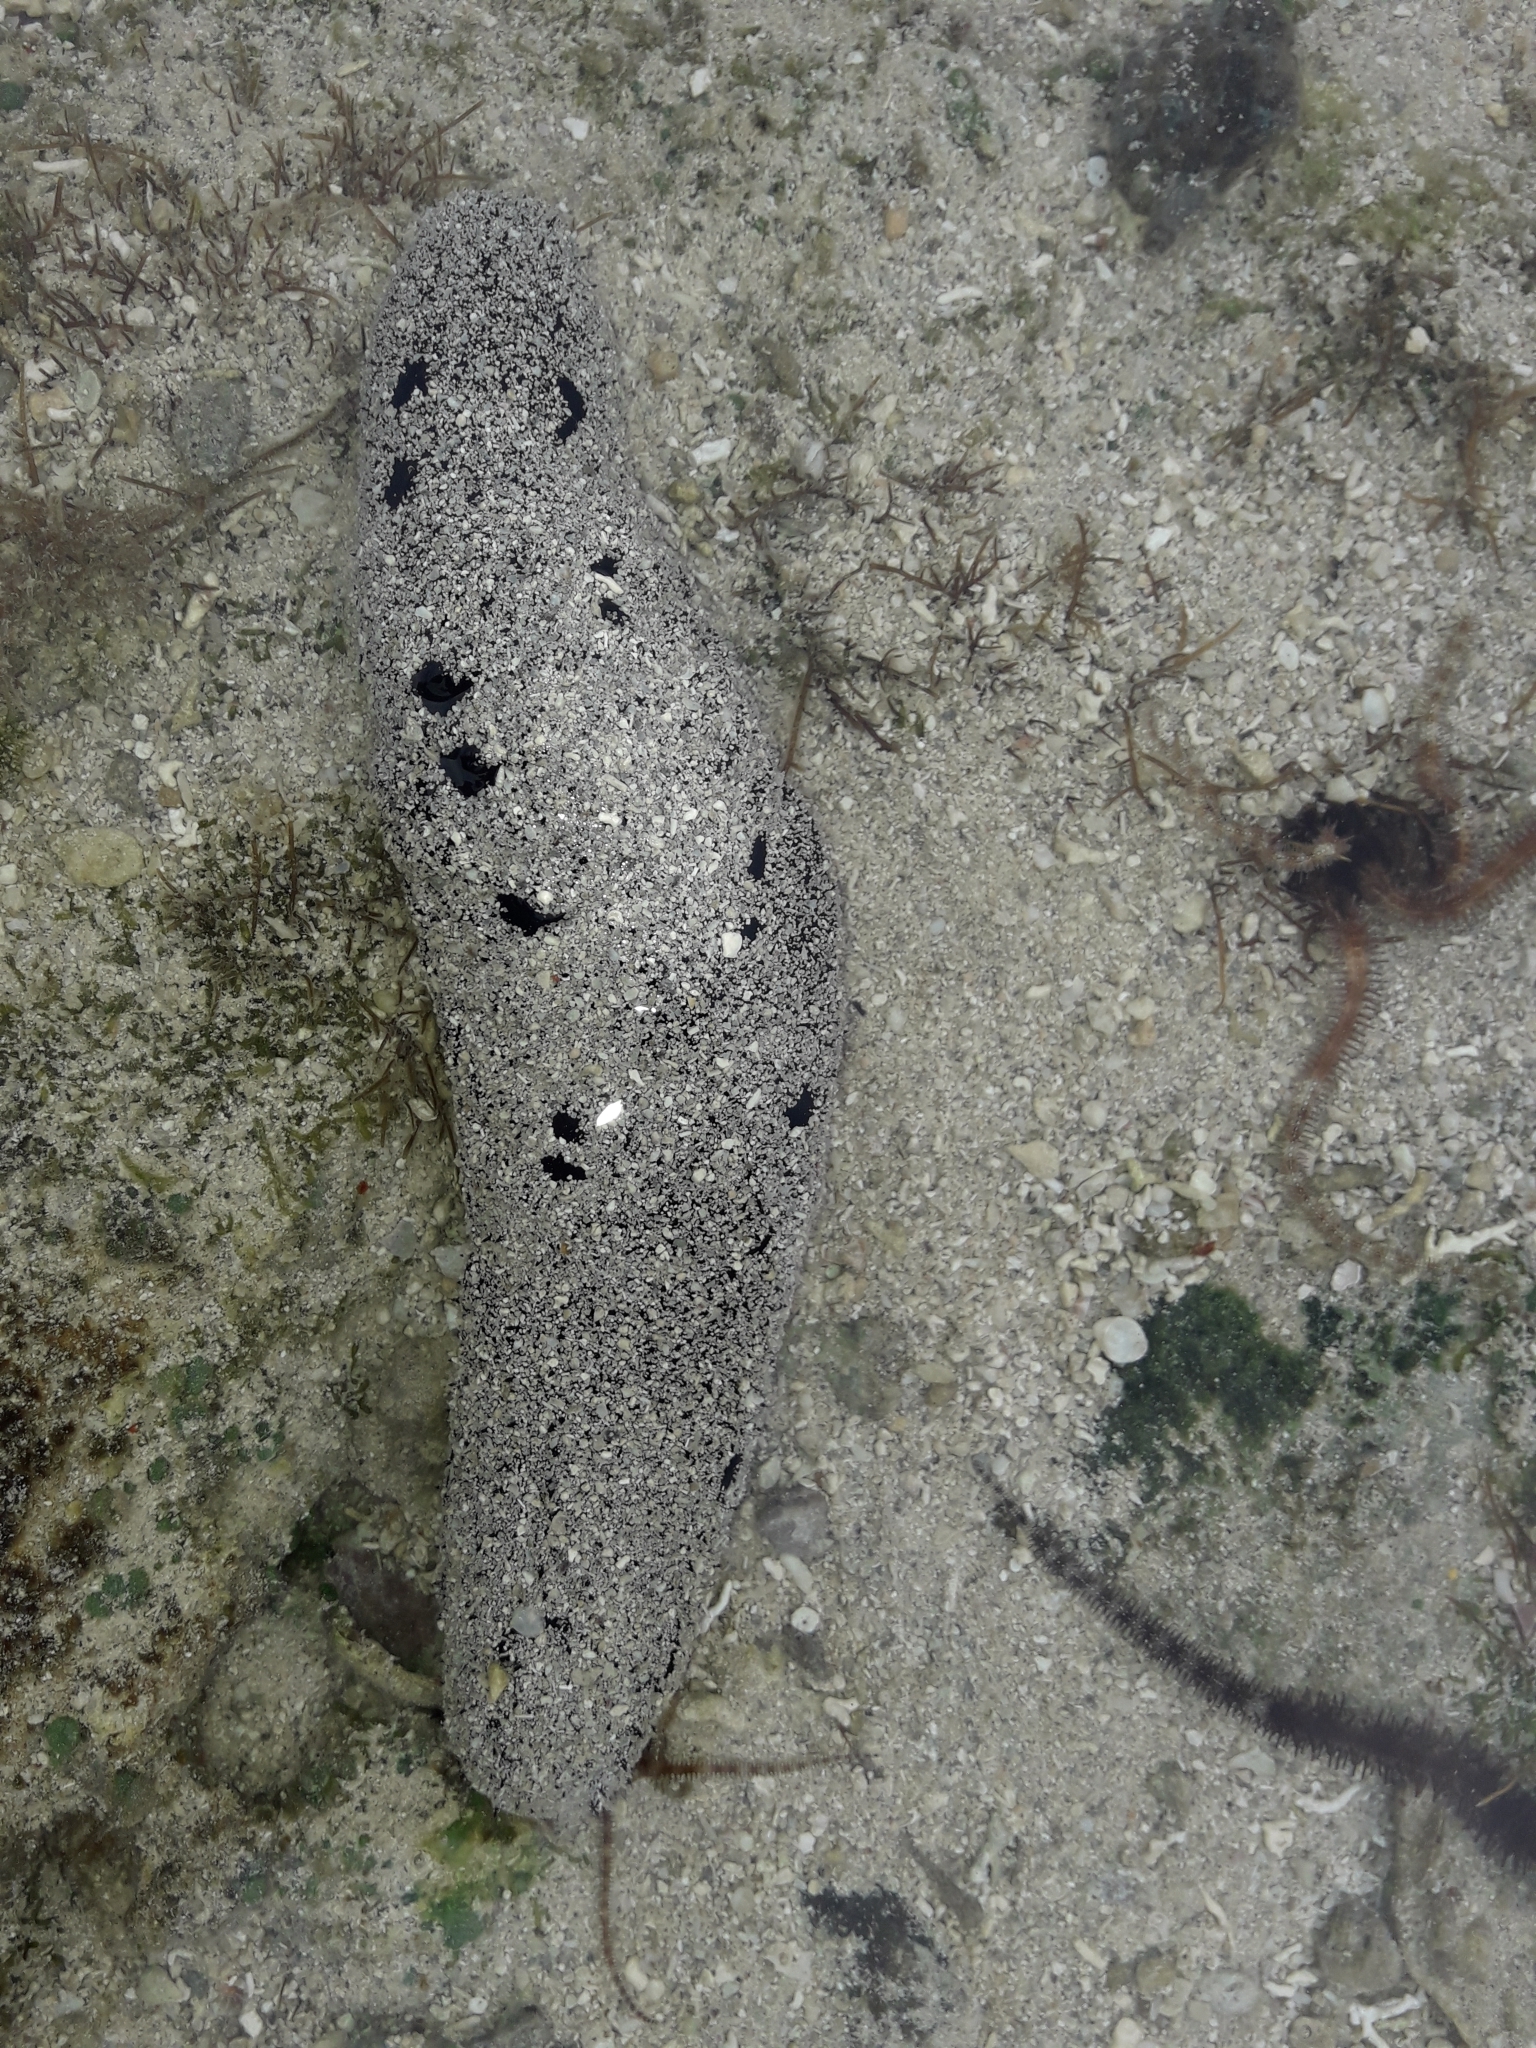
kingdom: Animalia
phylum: Echinodermata
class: Holothuroidea
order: Holothuriida
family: Holothuriidae
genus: Holothuria
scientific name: Holothuria atra
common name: Lollyfish
